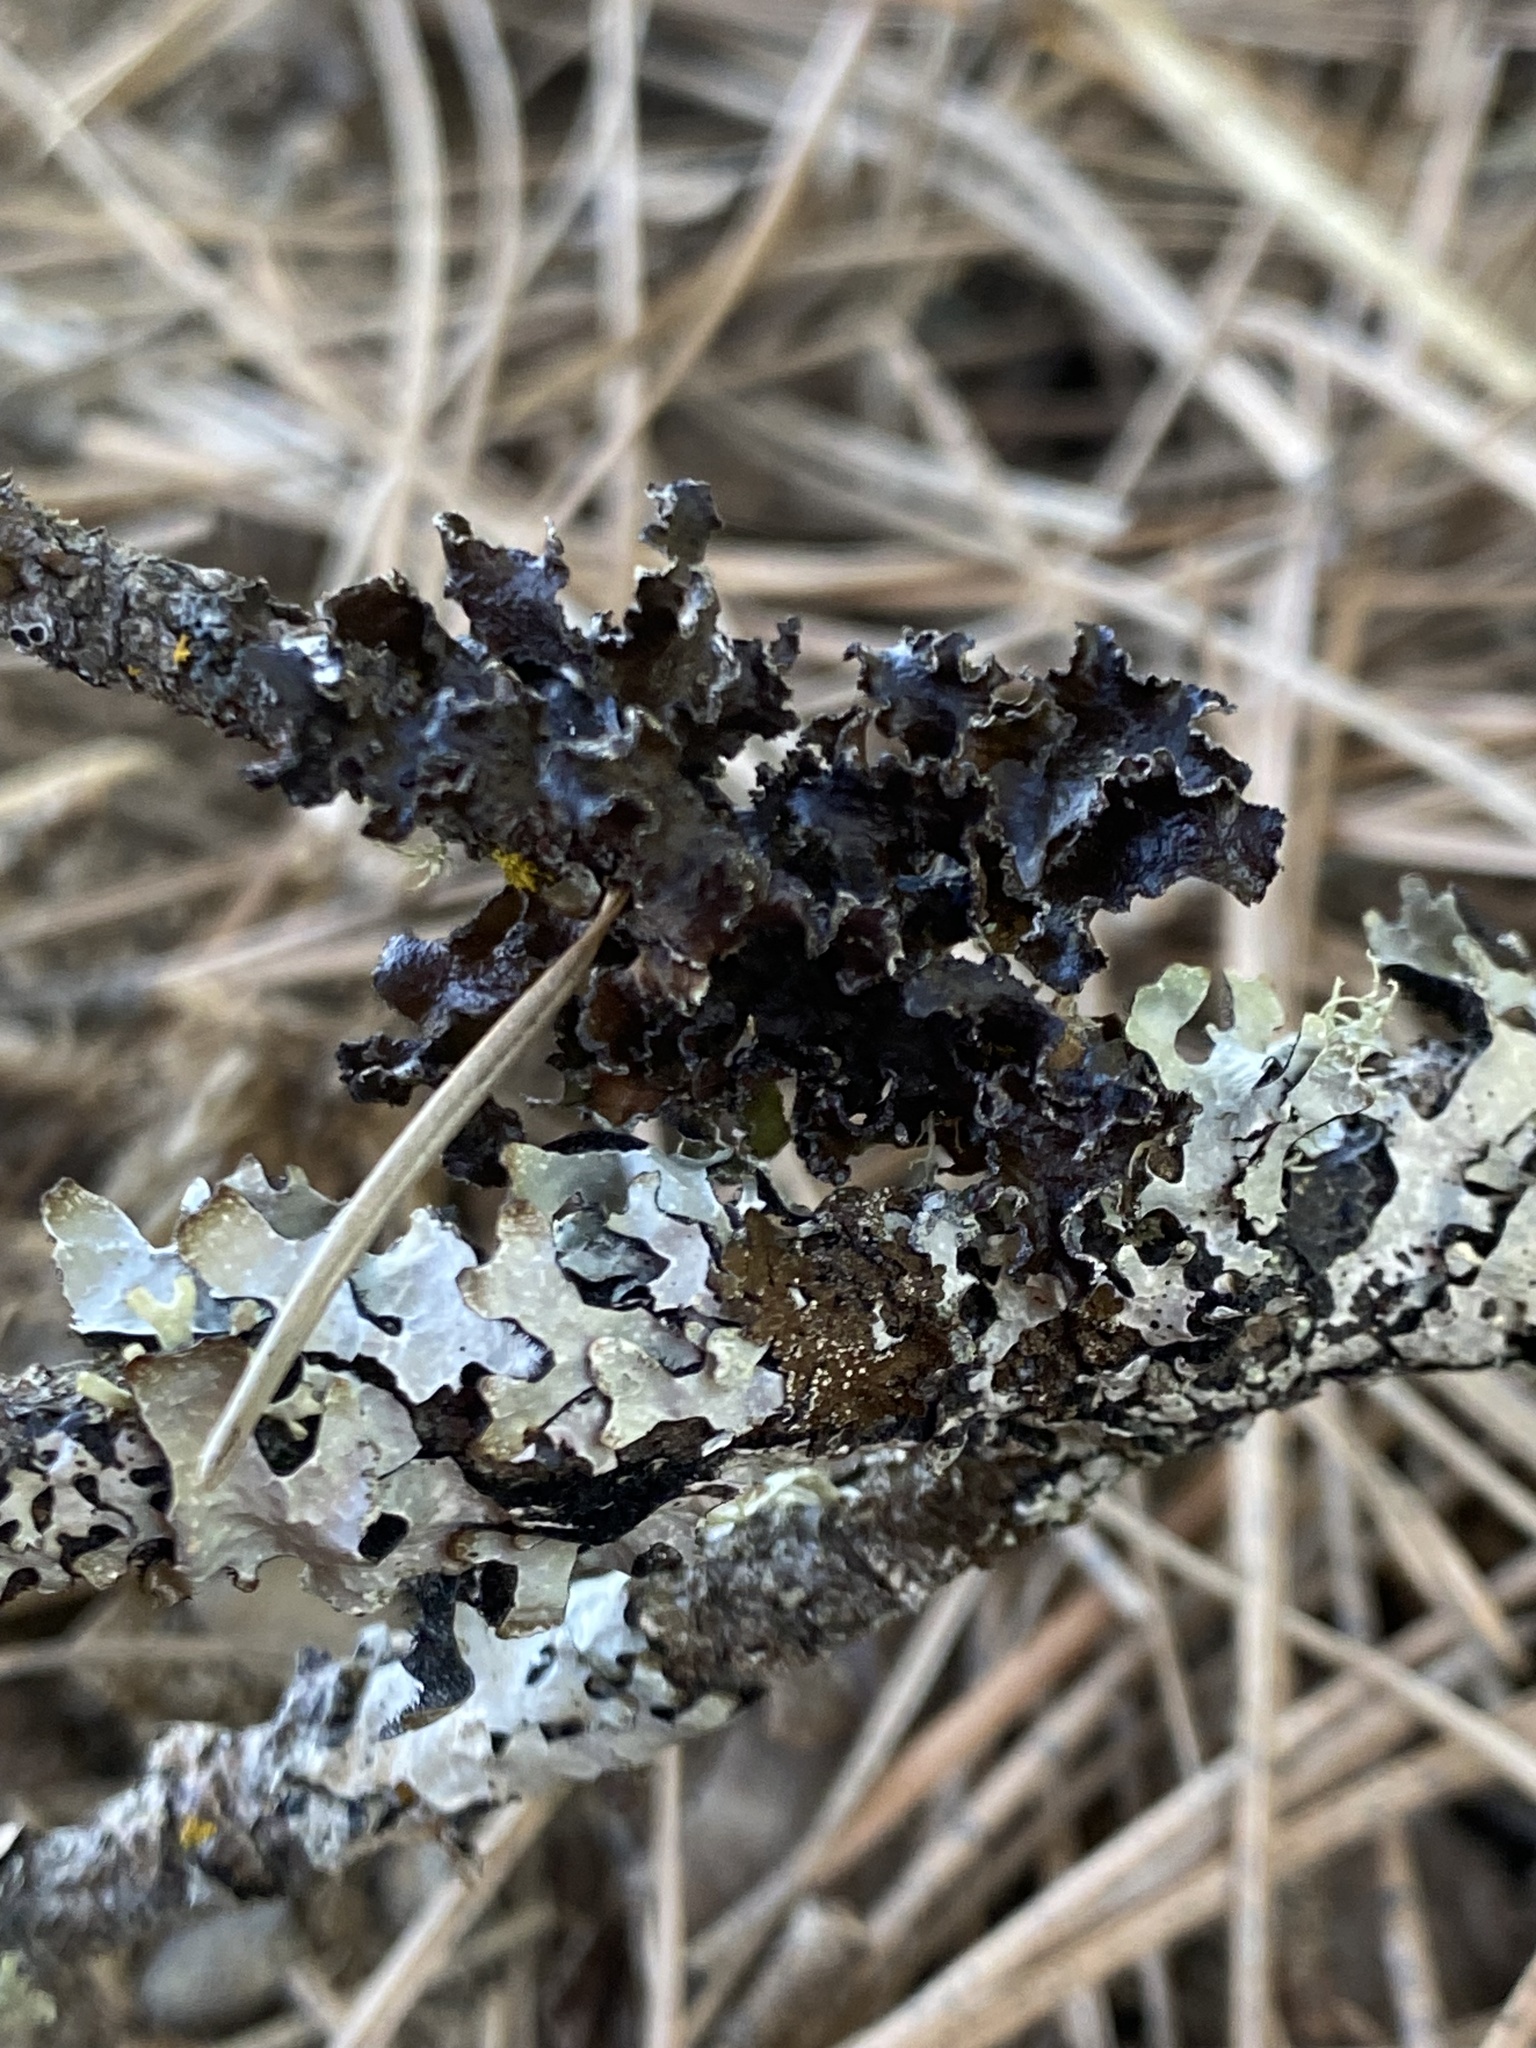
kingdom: Fungi
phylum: Ascomycota
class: Lecanoromycetes
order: Lecanorales
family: Parmeliaceae
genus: Nephromopsis
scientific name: Nephromopsis chlorophylla
